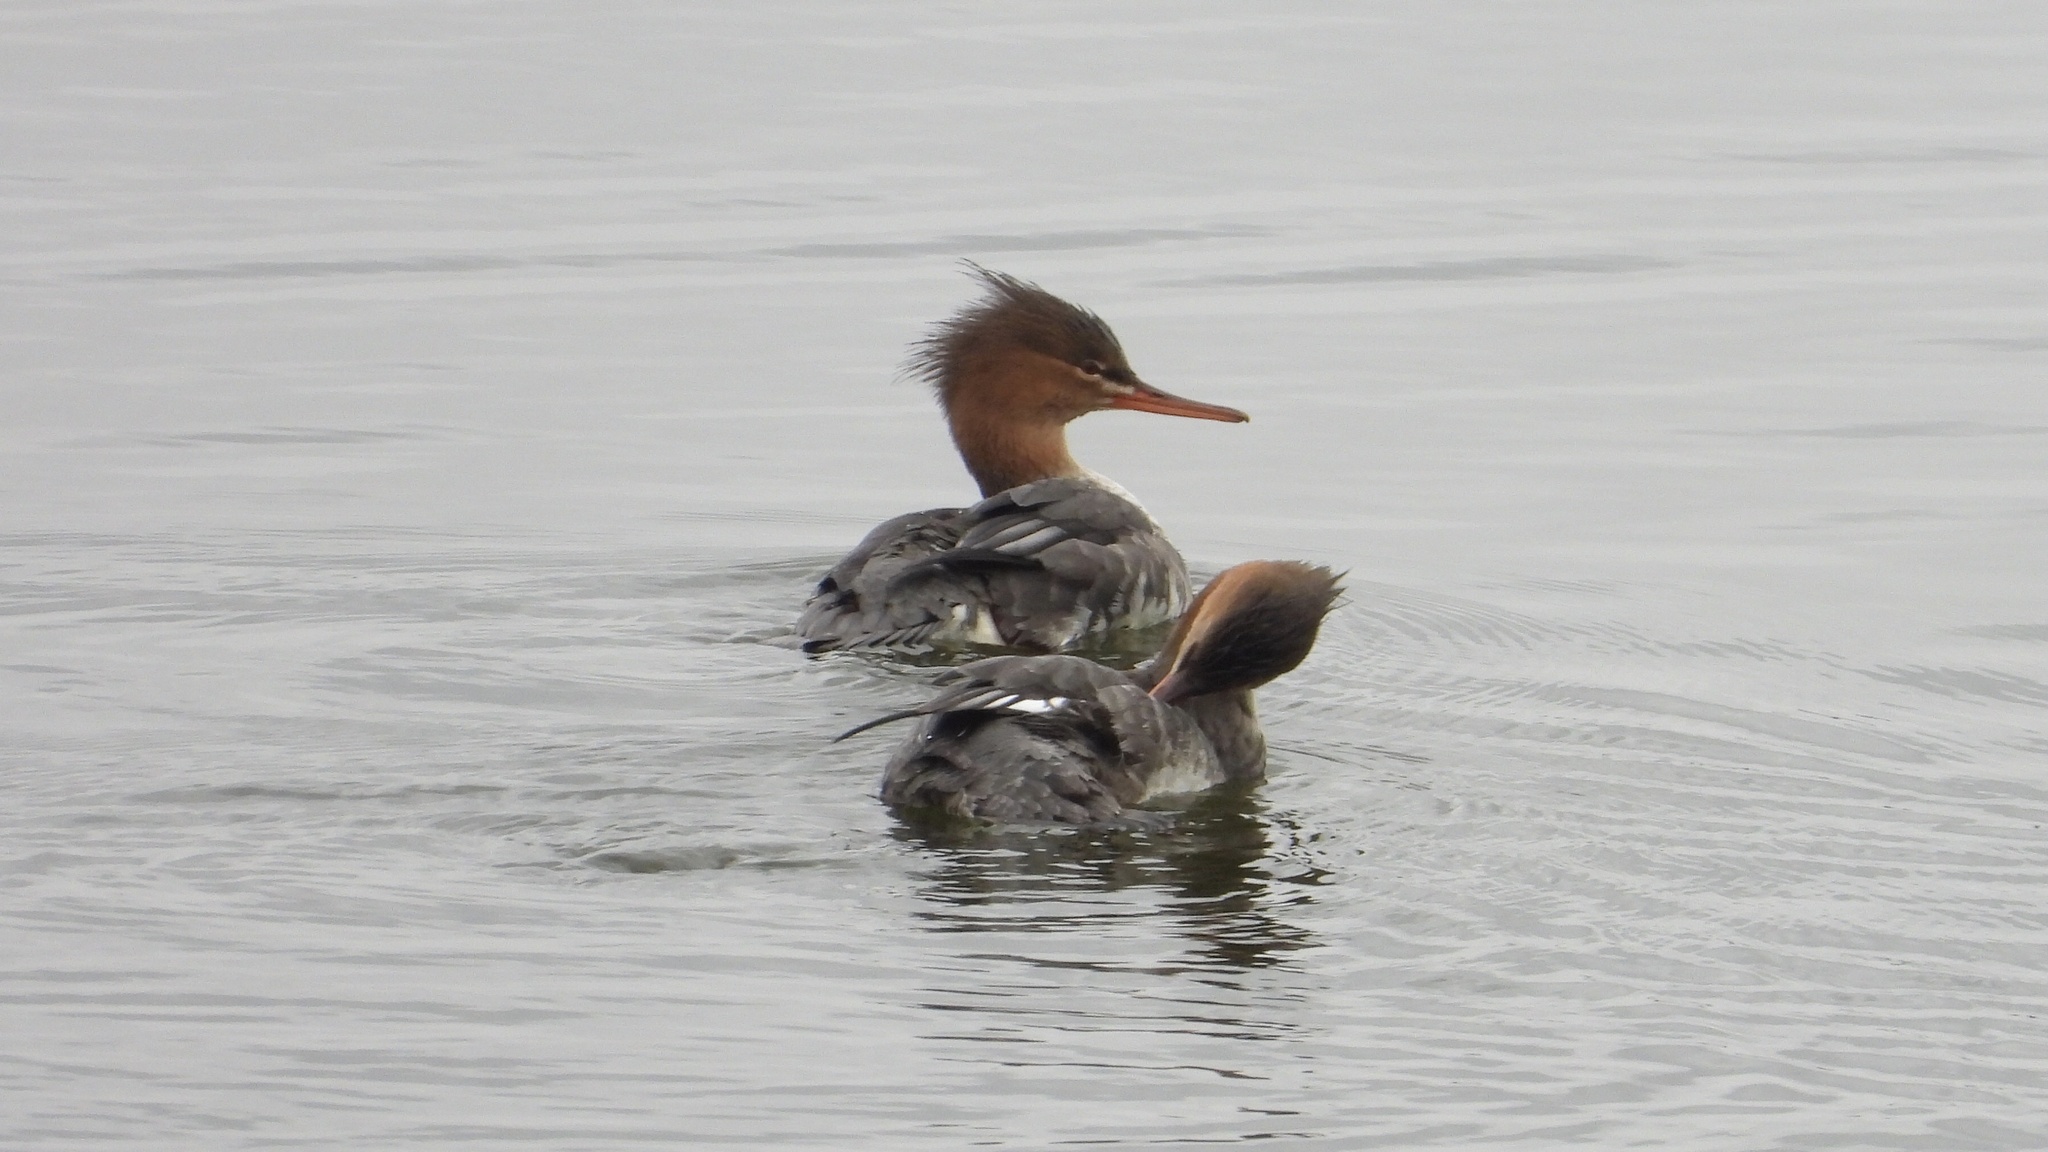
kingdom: Animalia
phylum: Chordata
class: Aves
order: Anseriformes
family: Anatidae
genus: Mergus
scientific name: Mergus serrator
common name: Red-breasted merganser
